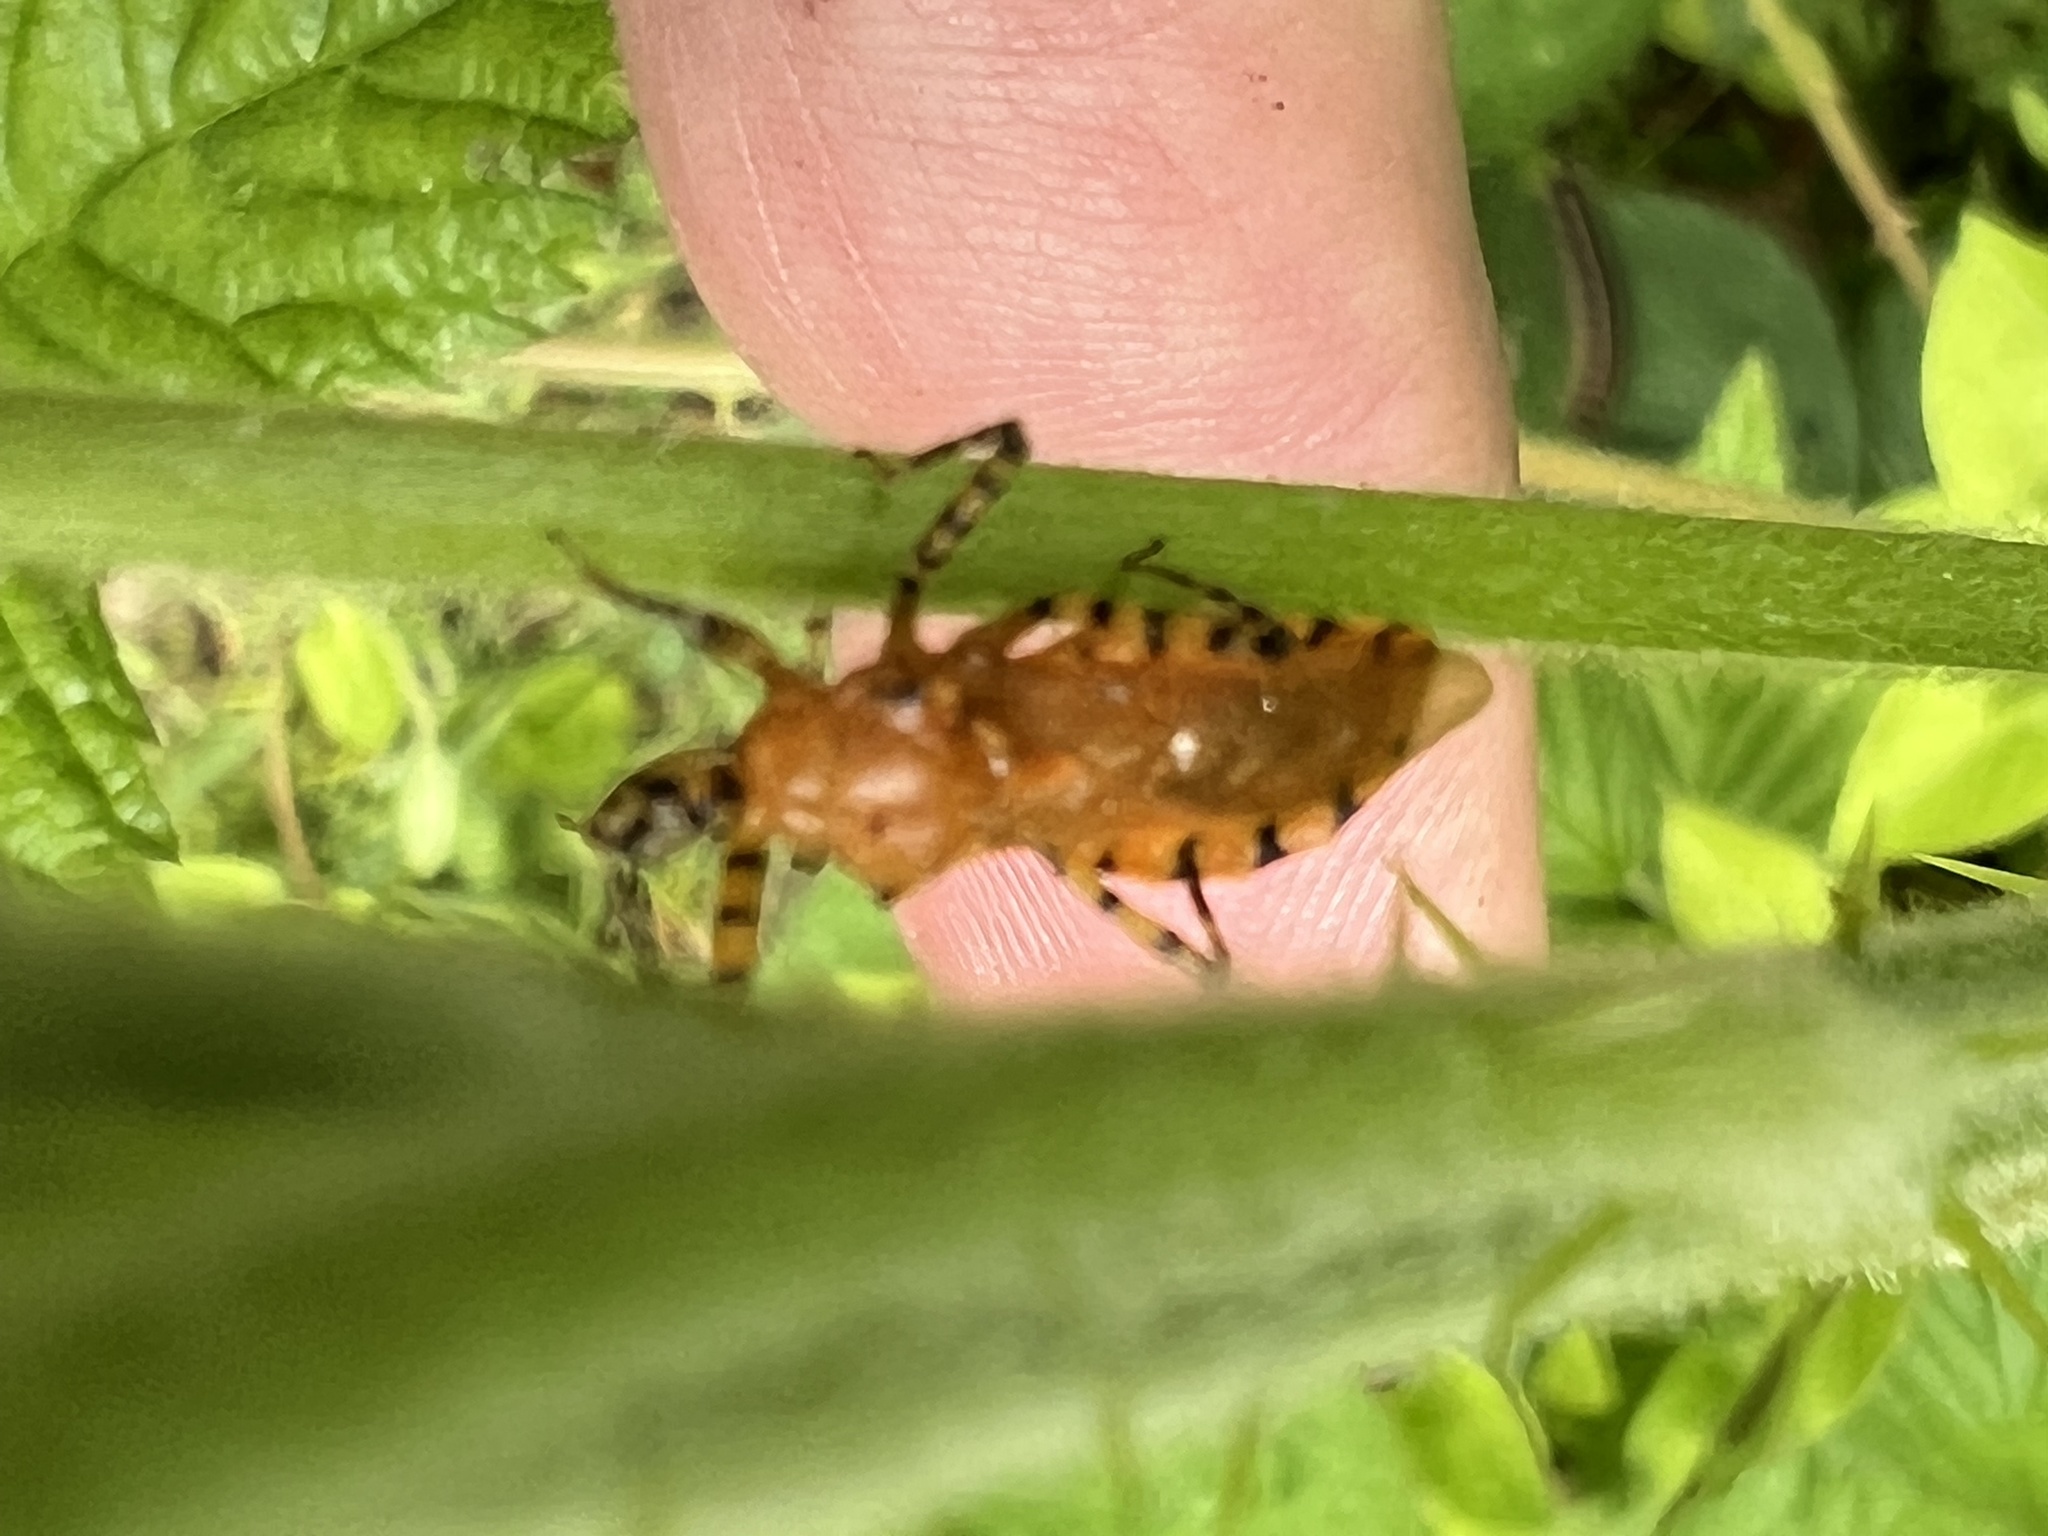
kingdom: Animalia
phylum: Arthropoda
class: Insecta
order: Hemiptera
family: Reduviidae
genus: Pselliopus
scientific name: Pselliopus barberi
